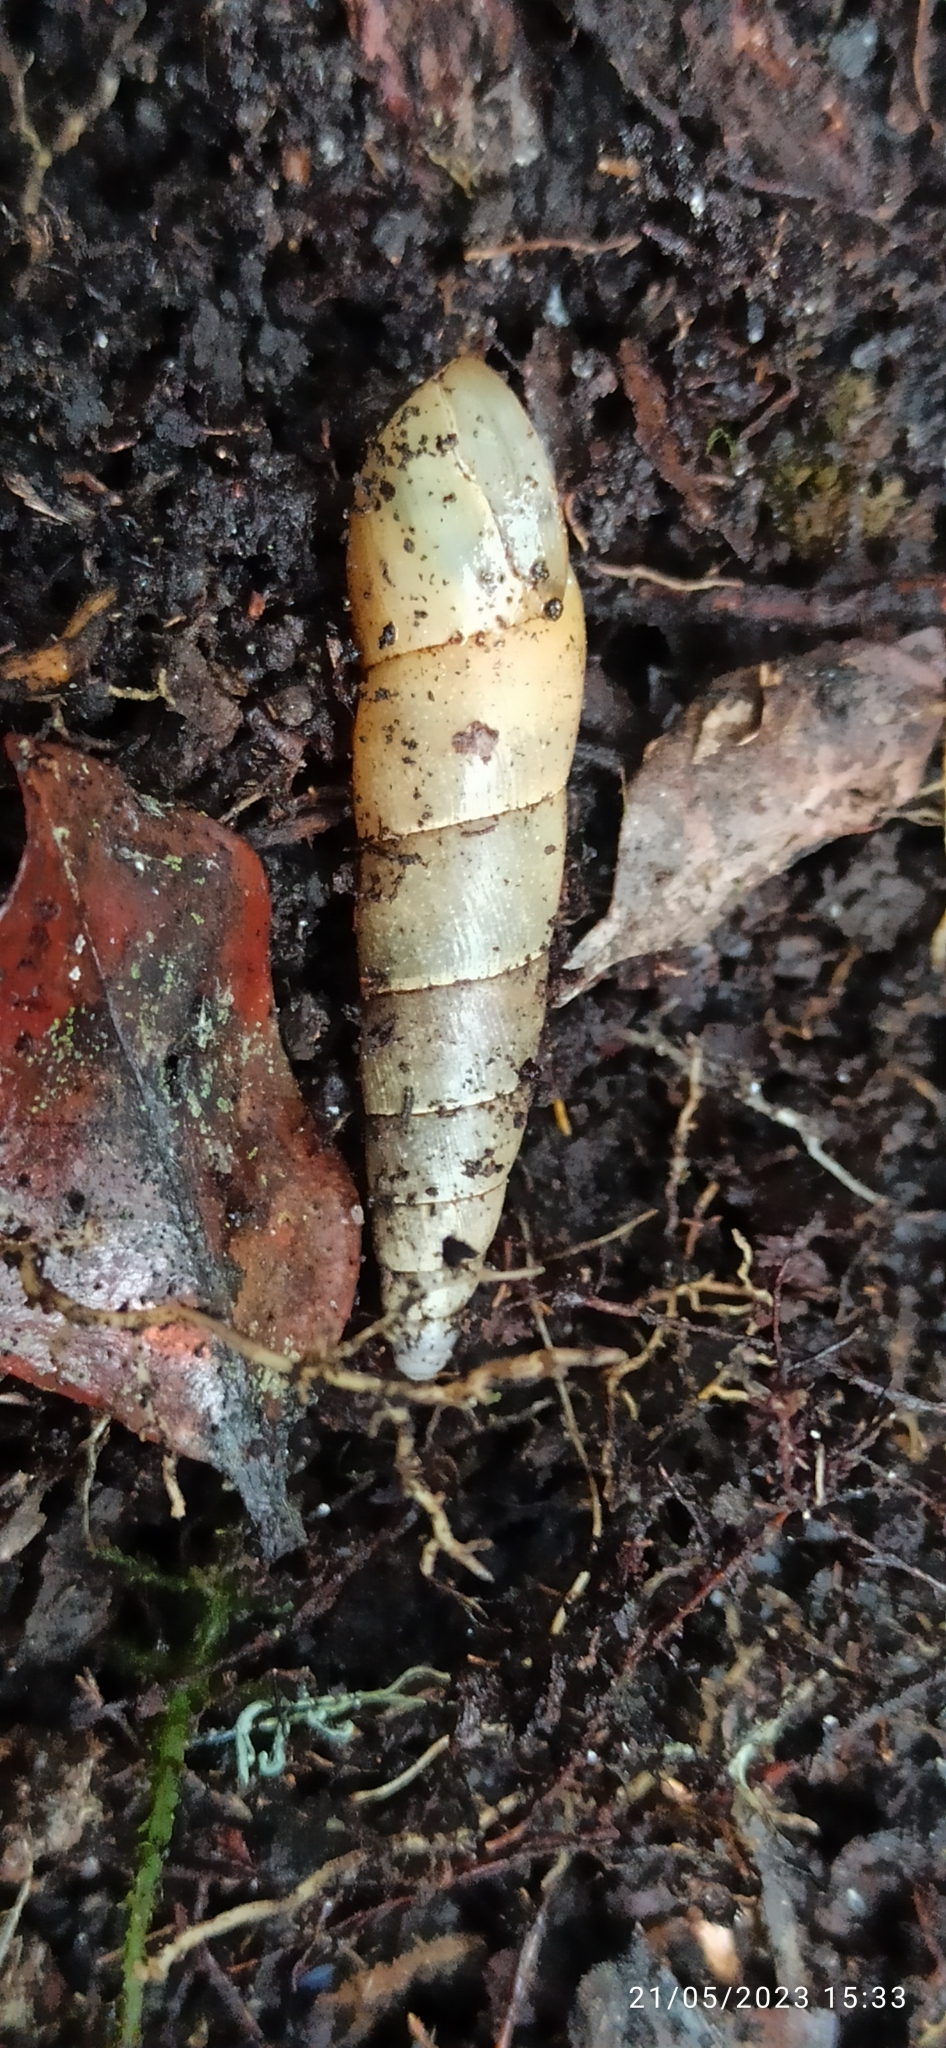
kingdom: Animalia
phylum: Mollusca
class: Gastropoda
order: Stylommatophora
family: Achatinidae
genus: Protobeliscus
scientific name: Protobeliscus fairmaireanus
